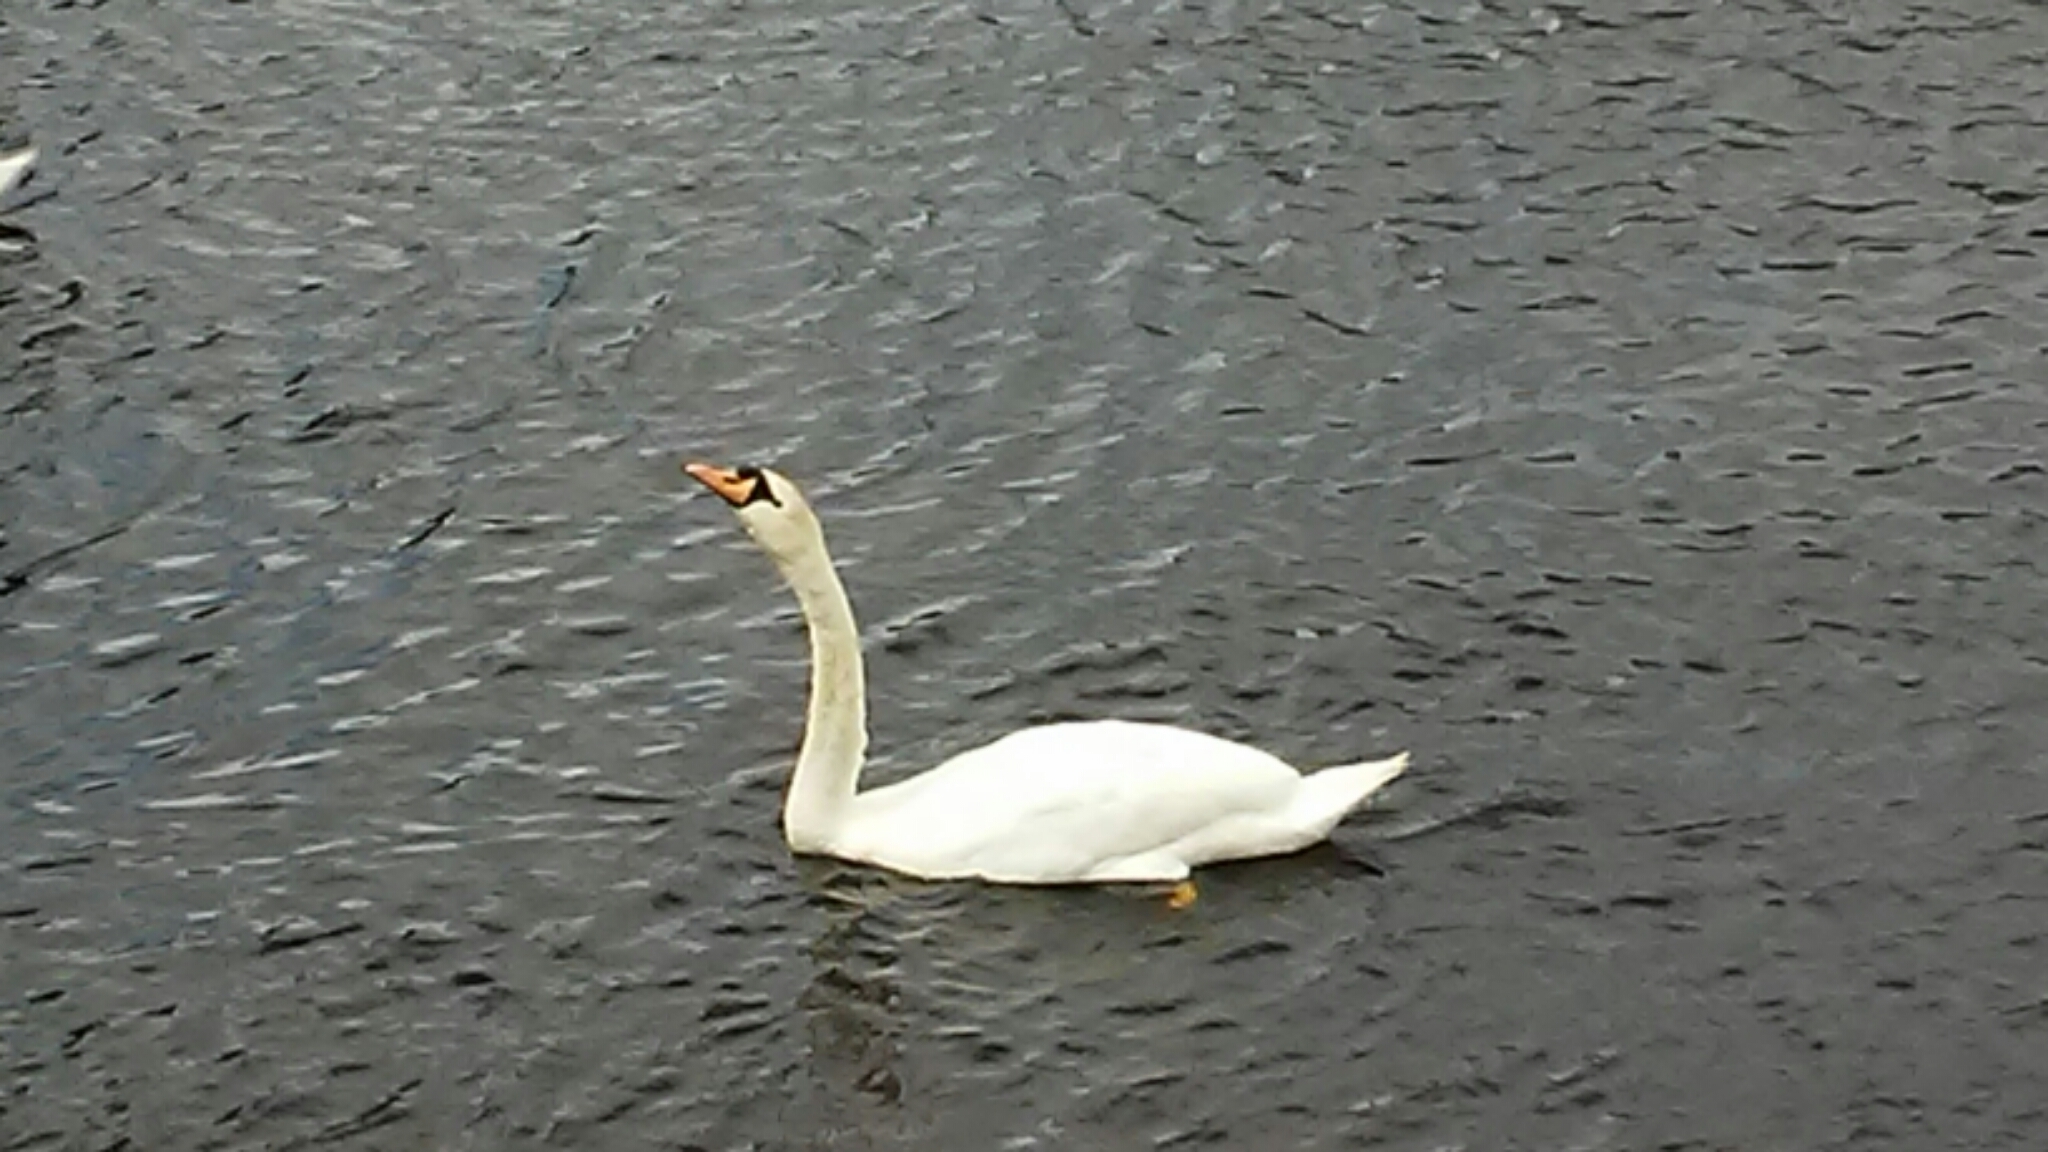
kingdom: Animalia
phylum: Chordata
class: Aves
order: Anseriformes
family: Anatidae
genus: Cygnus
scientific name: Cygnus olor
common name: Mute swan
